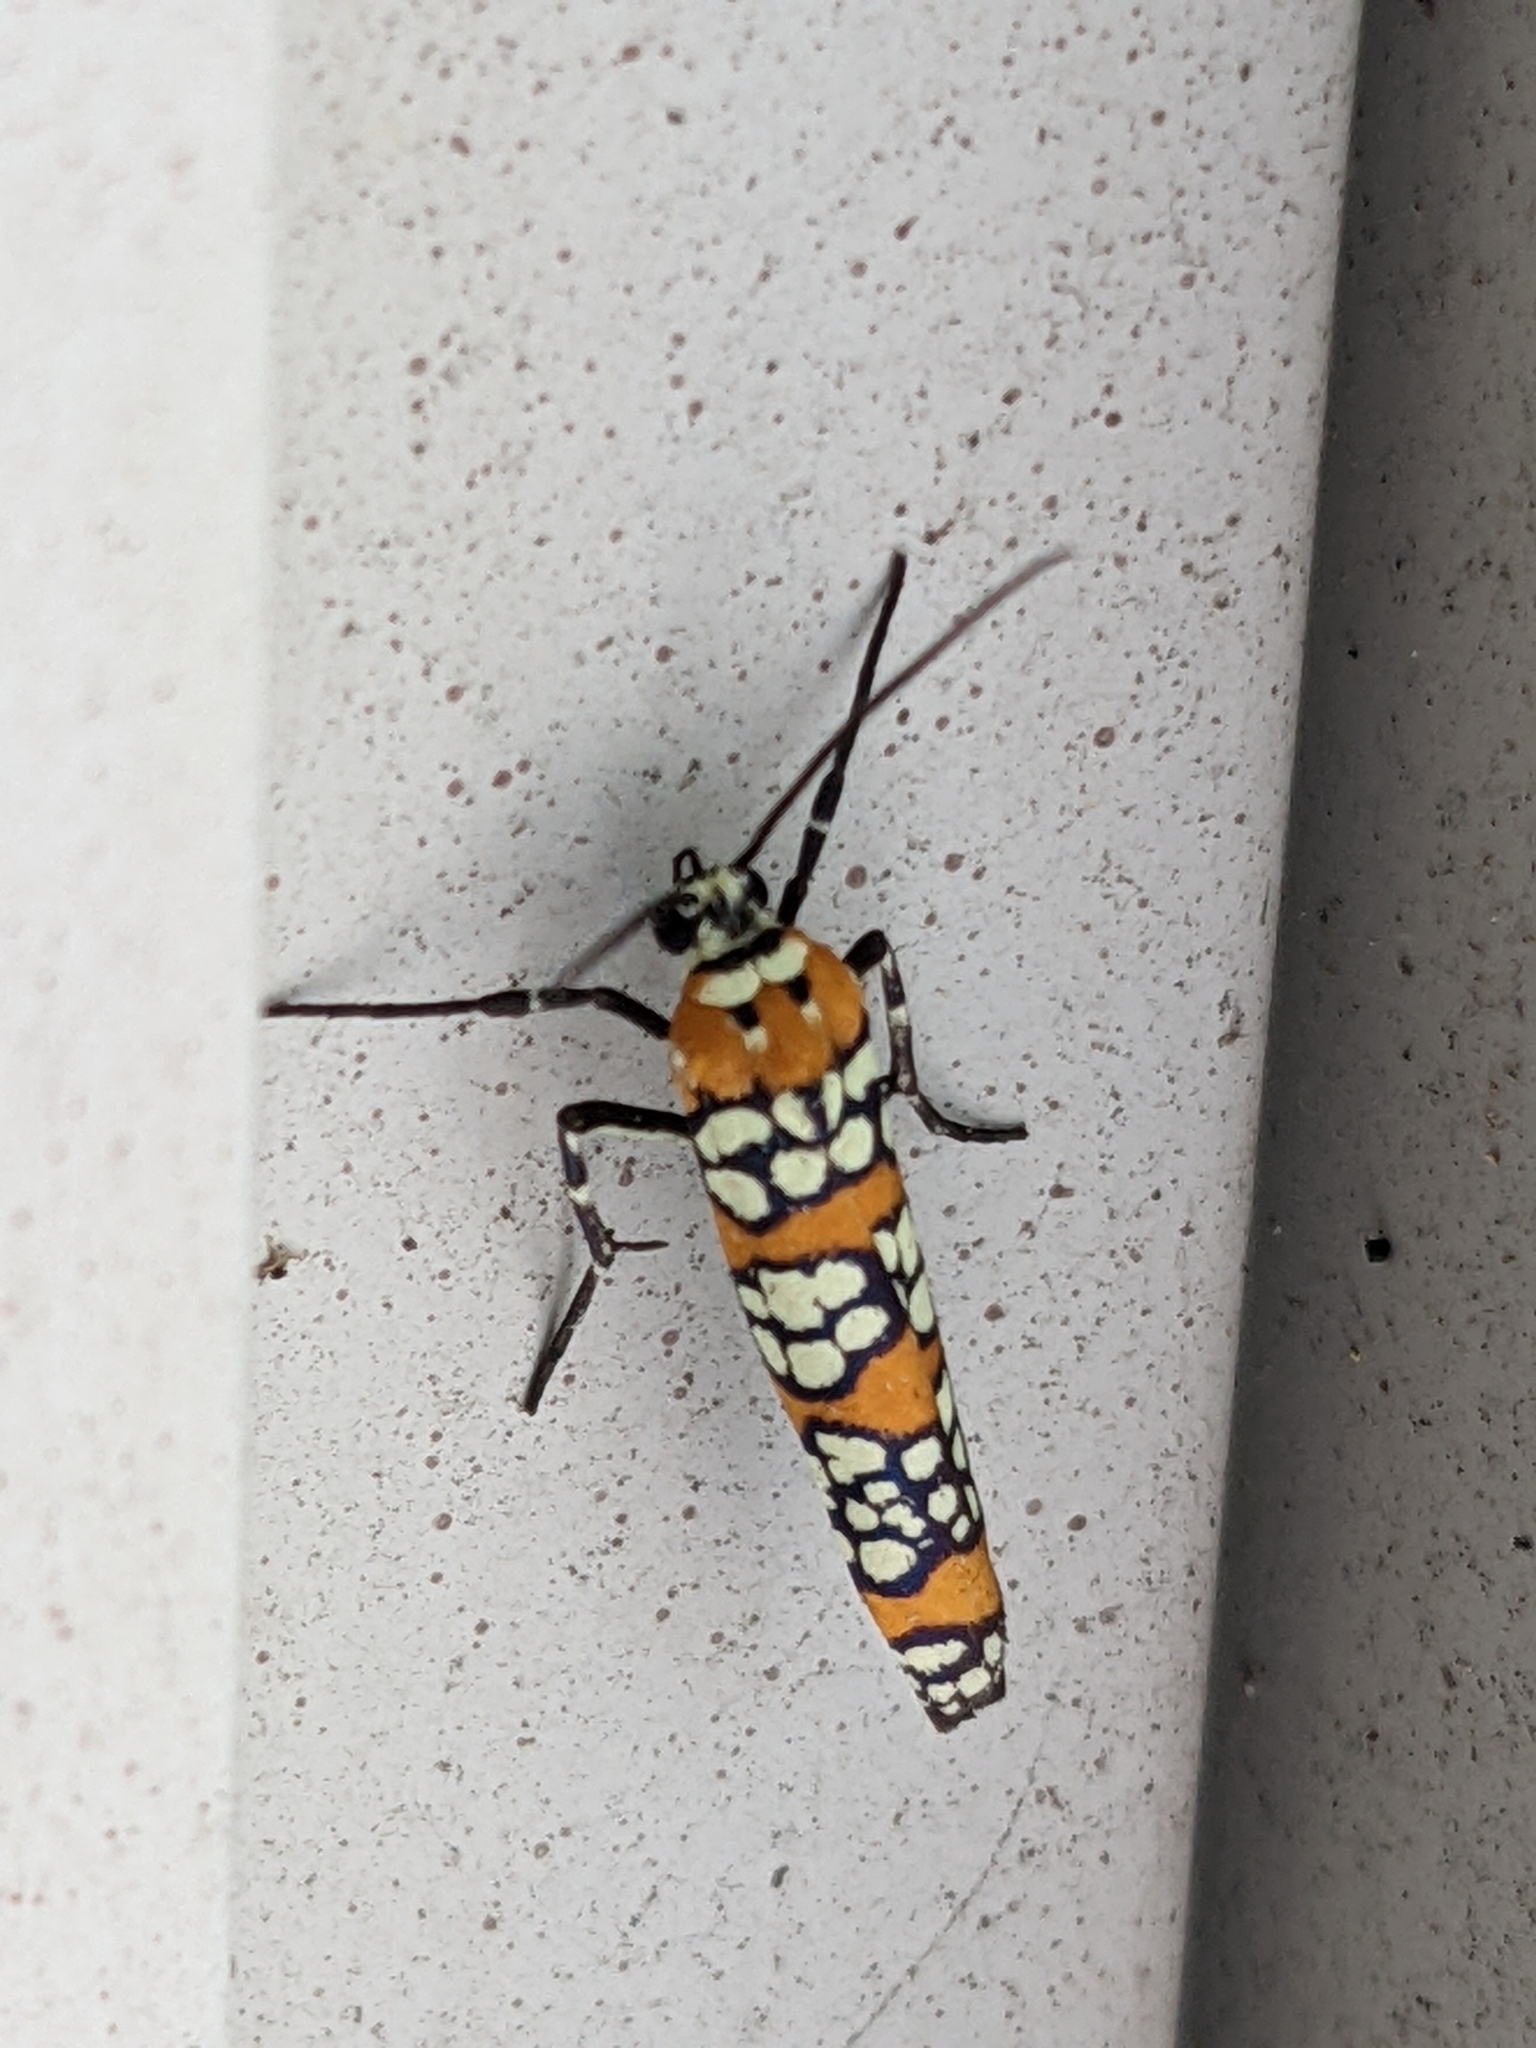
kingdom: Animalia
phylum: Arthropoda
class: Insecta
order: Lepidoptera
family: Attevidae
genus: Atteva
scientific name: Atteva punctella
